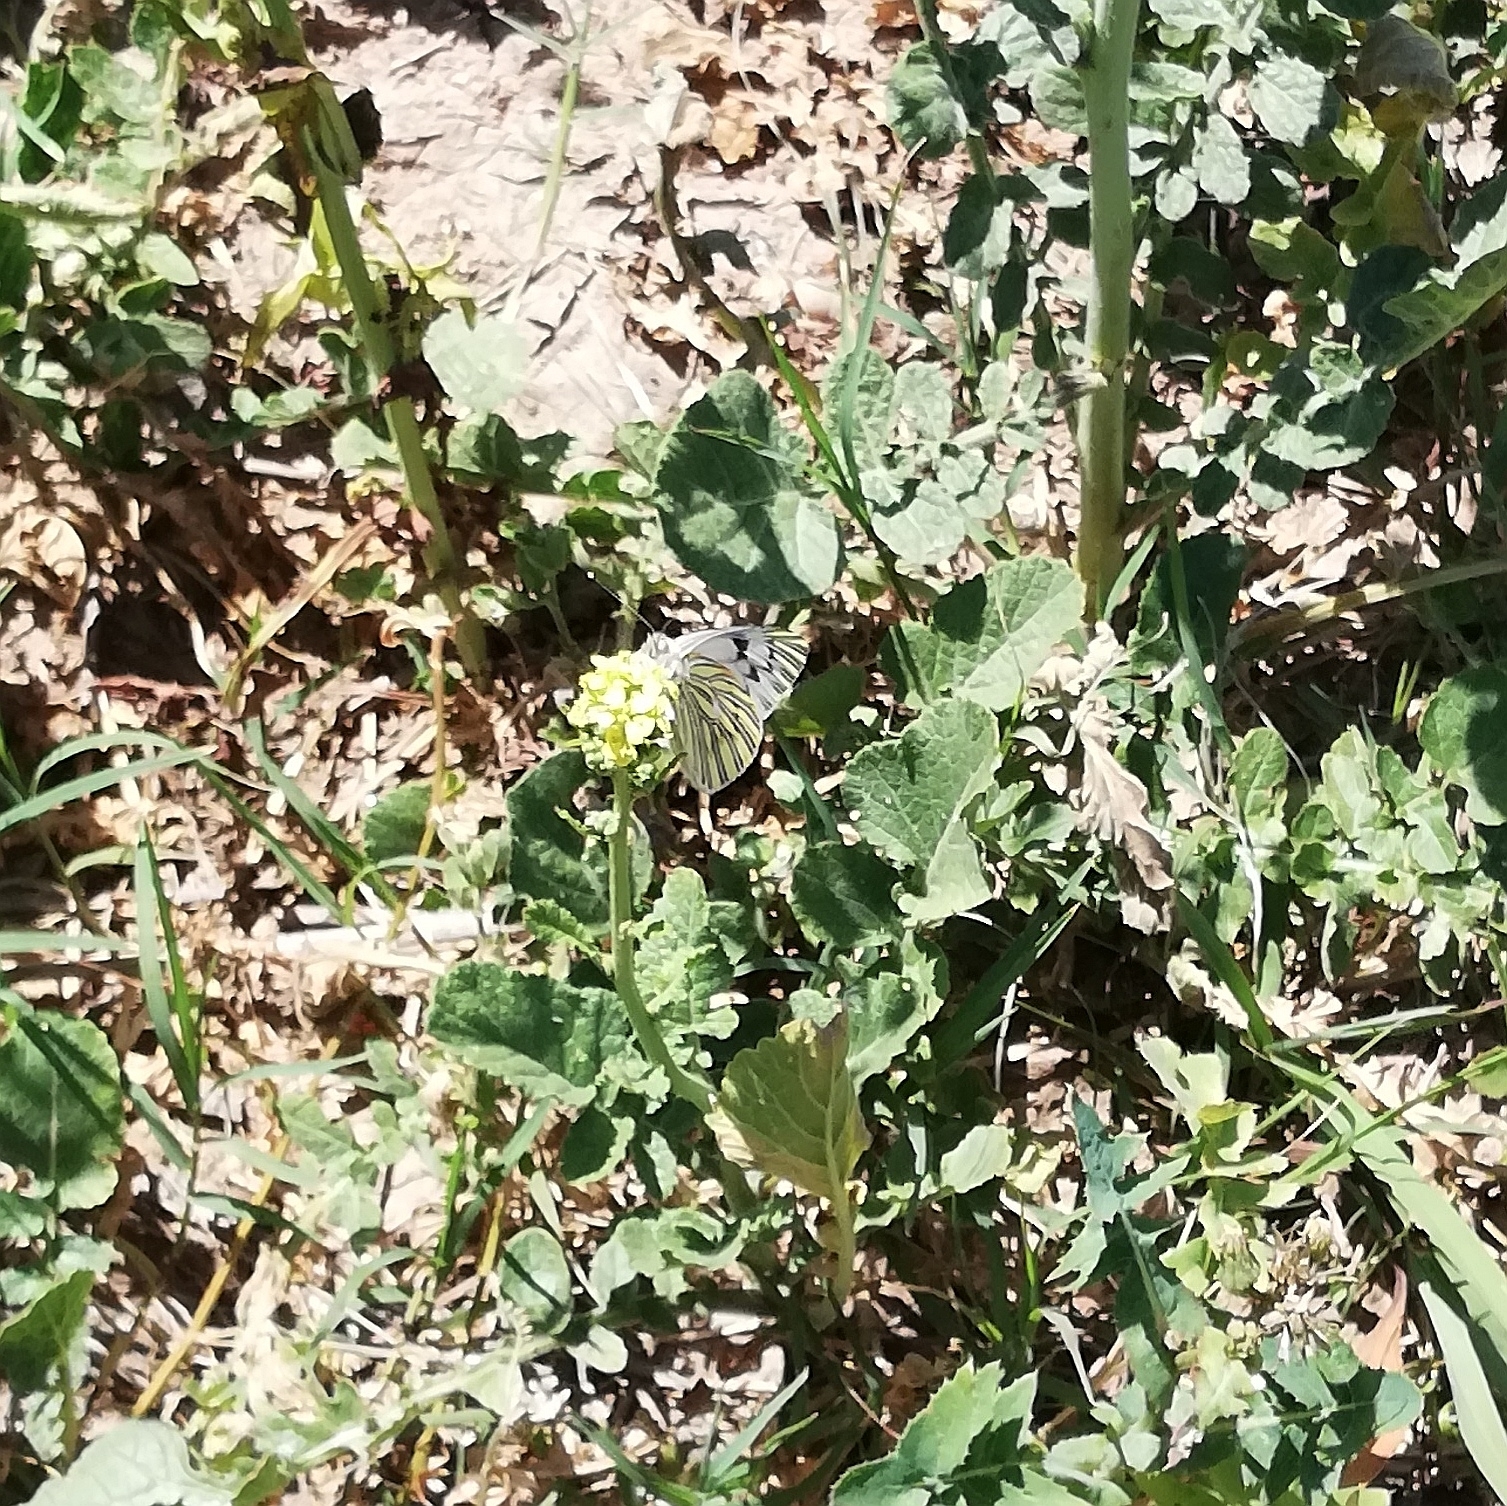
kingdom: Animalia
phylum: Arthropoda
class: Insecta
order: Lepidoptera
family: Pieridae
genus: Tatochila
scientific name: Tatochila mercedis
